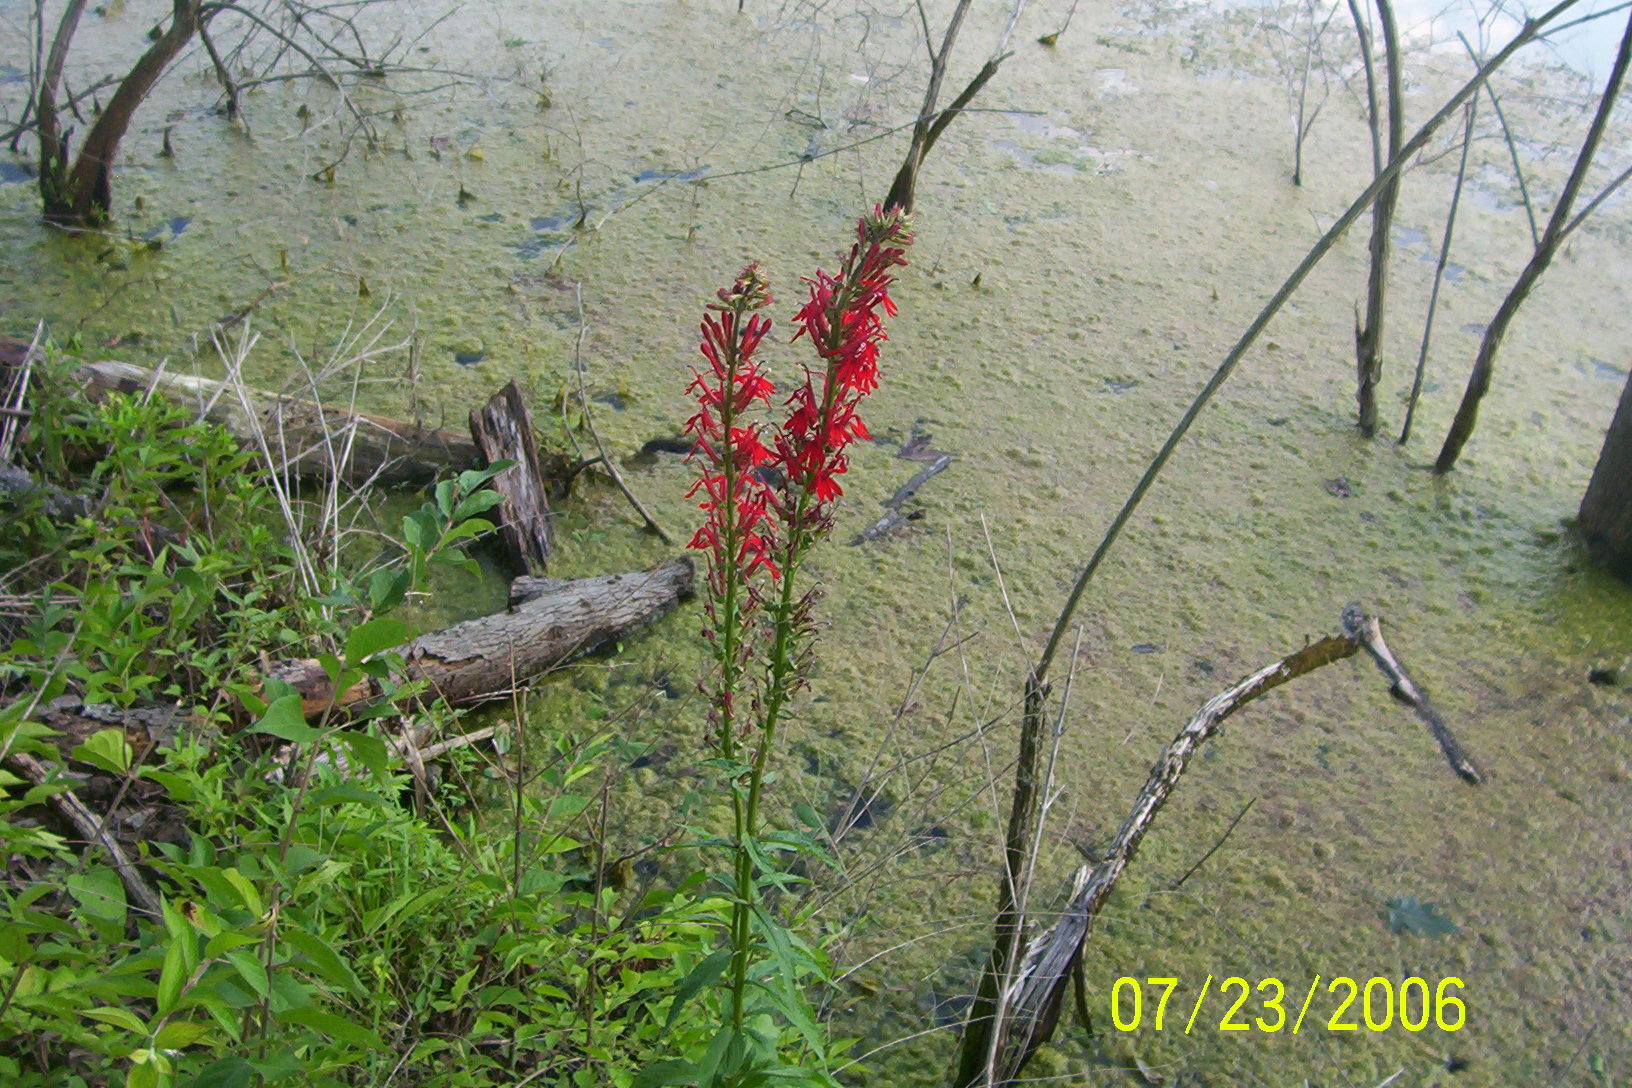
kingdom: Plantae
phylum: Tracheophyta
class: Magnoliopsida
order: Asterales
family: Campanulaceae
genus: Lobelia
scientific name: Lobelia cardinalis
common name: Cardinal flower
